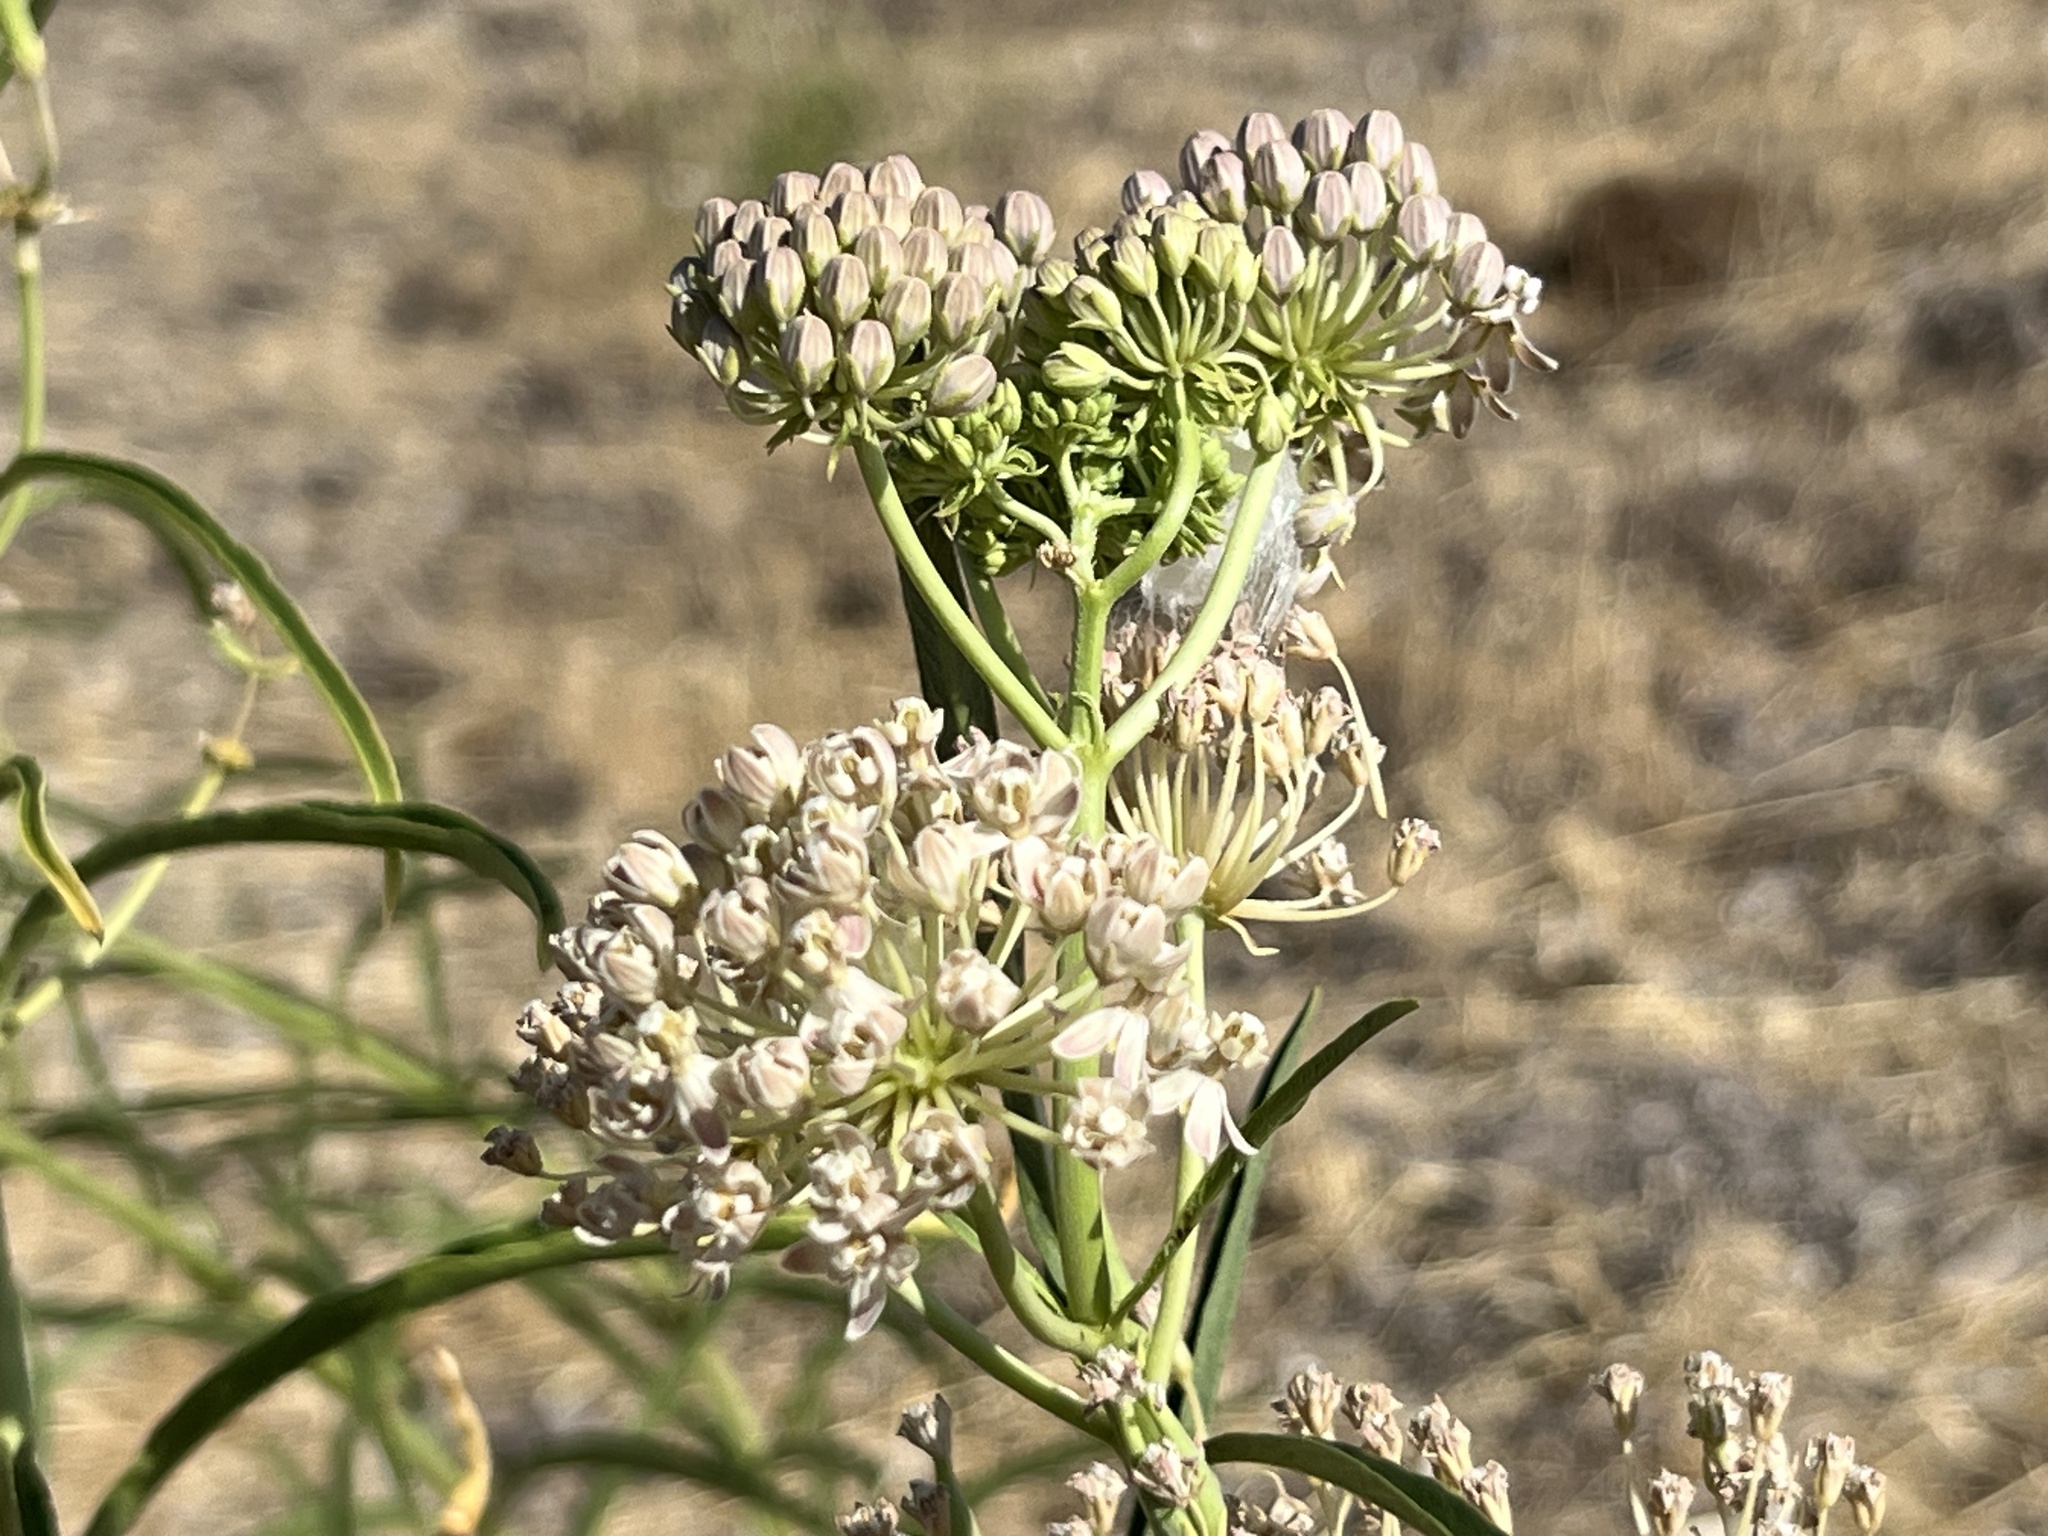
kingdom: Plantae
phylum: Tracheophyta
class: Magnoliopsida
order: Gentianales
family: Apocynaceae
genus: Asclepias
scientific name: Asclepias fascicularis
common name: Mexican milkweed
